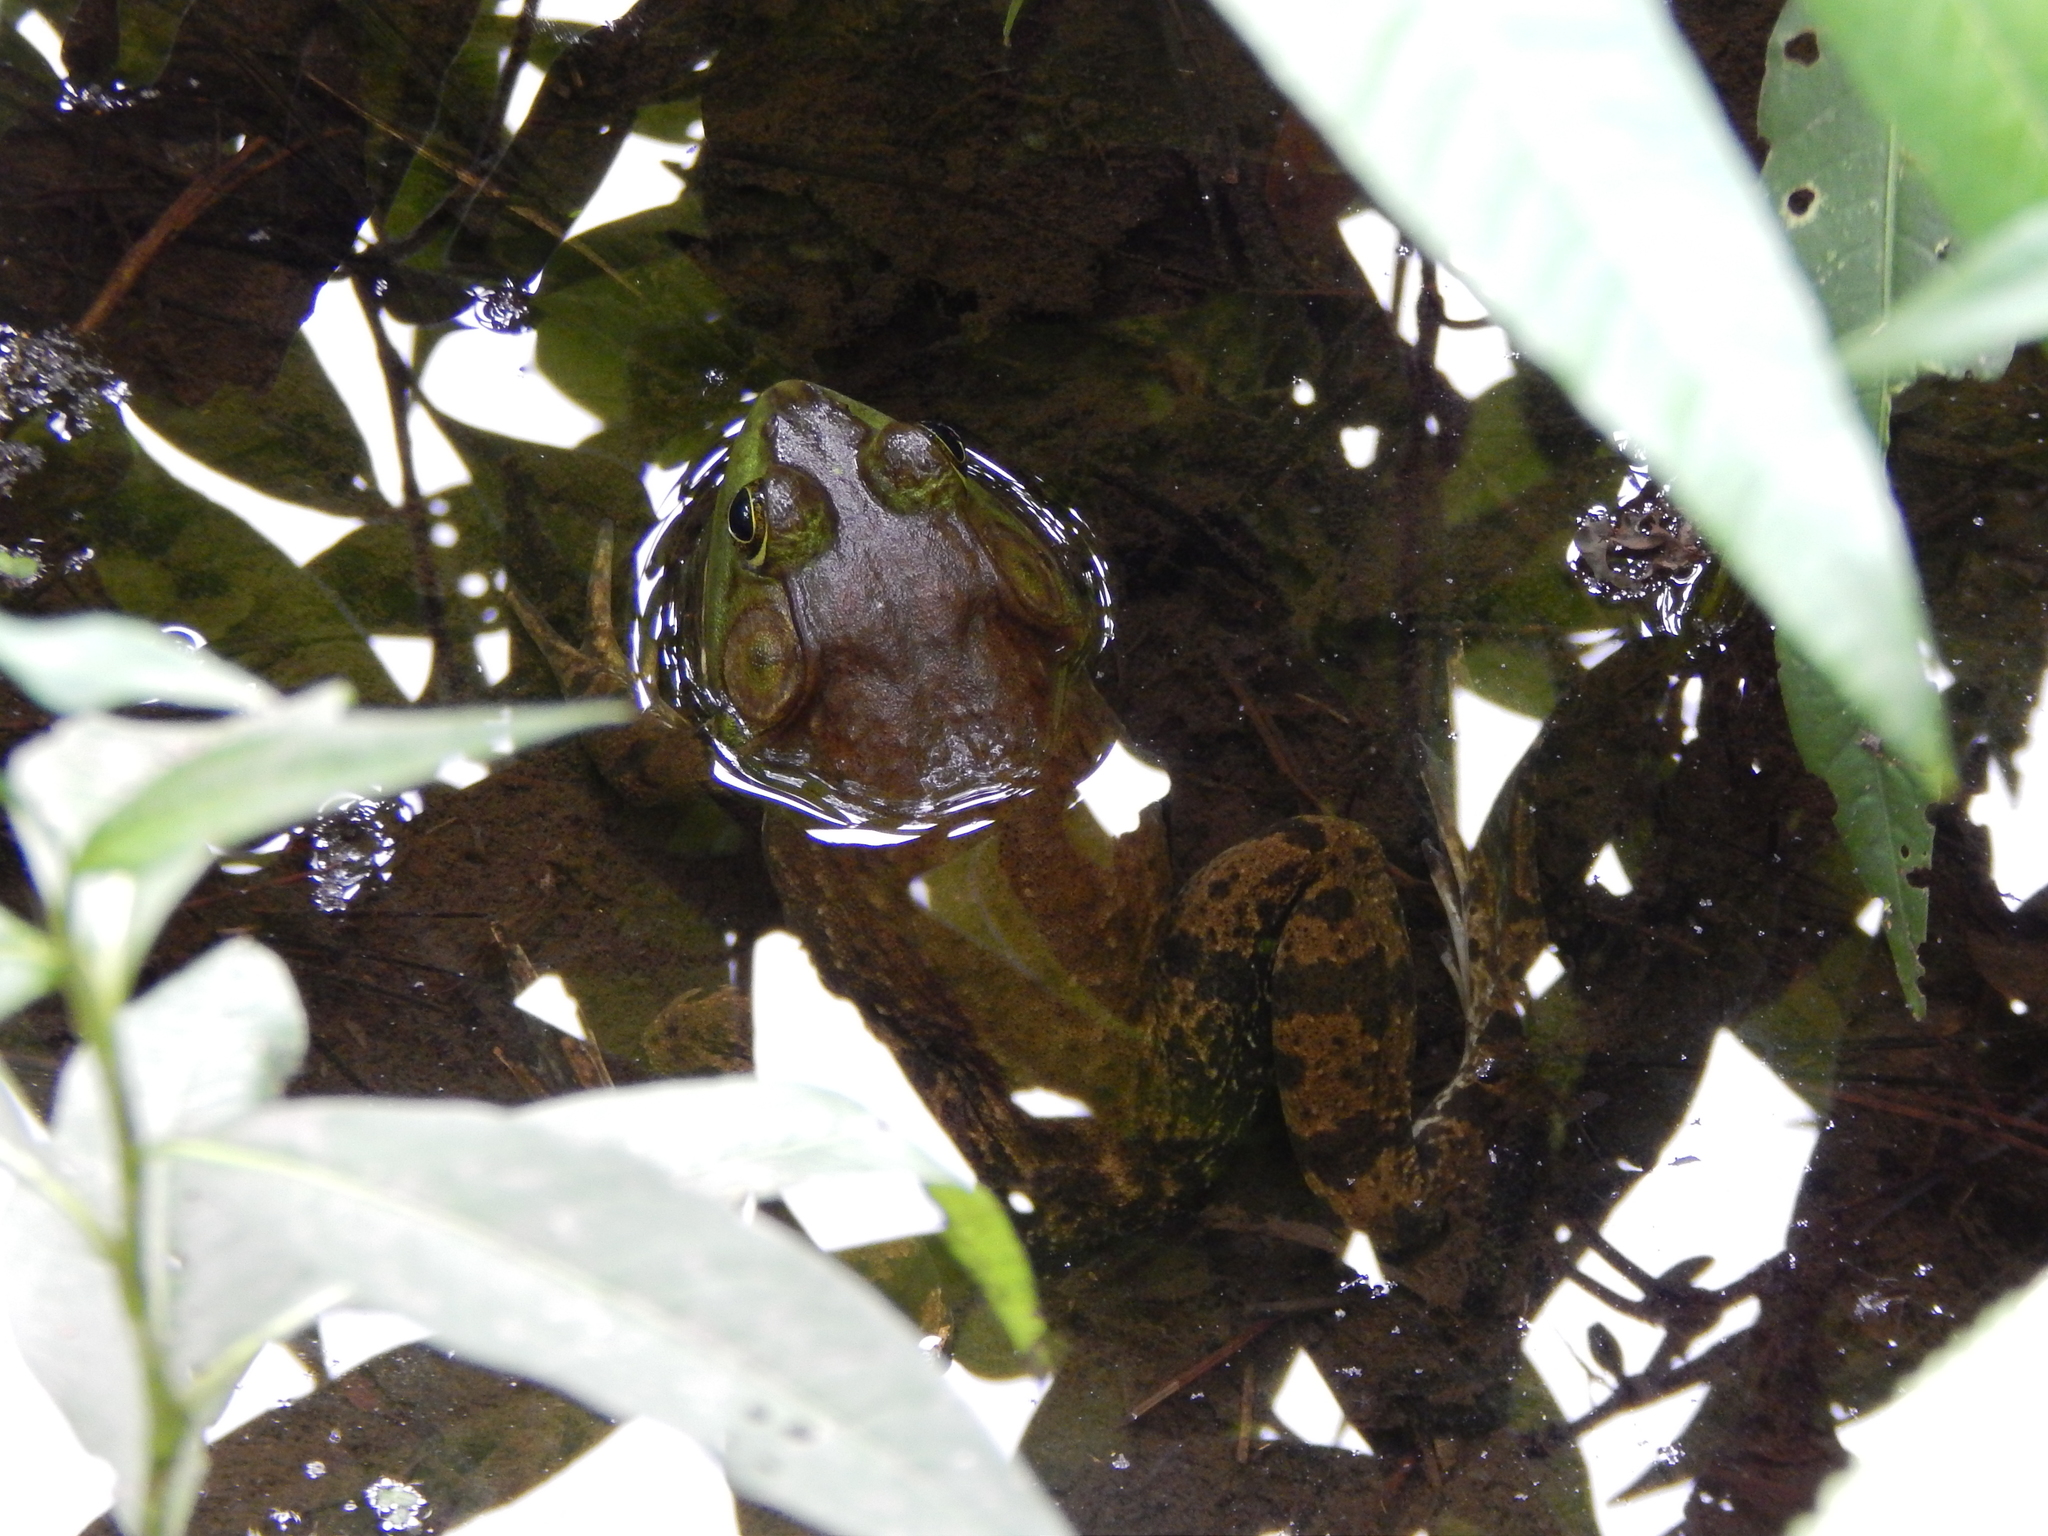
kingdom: Animalia
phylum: Chordata
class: Amphibia
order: Anura
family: Ranidae
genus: Lithobates
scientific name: Lithobates catesbeianus
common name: American bullfrog
